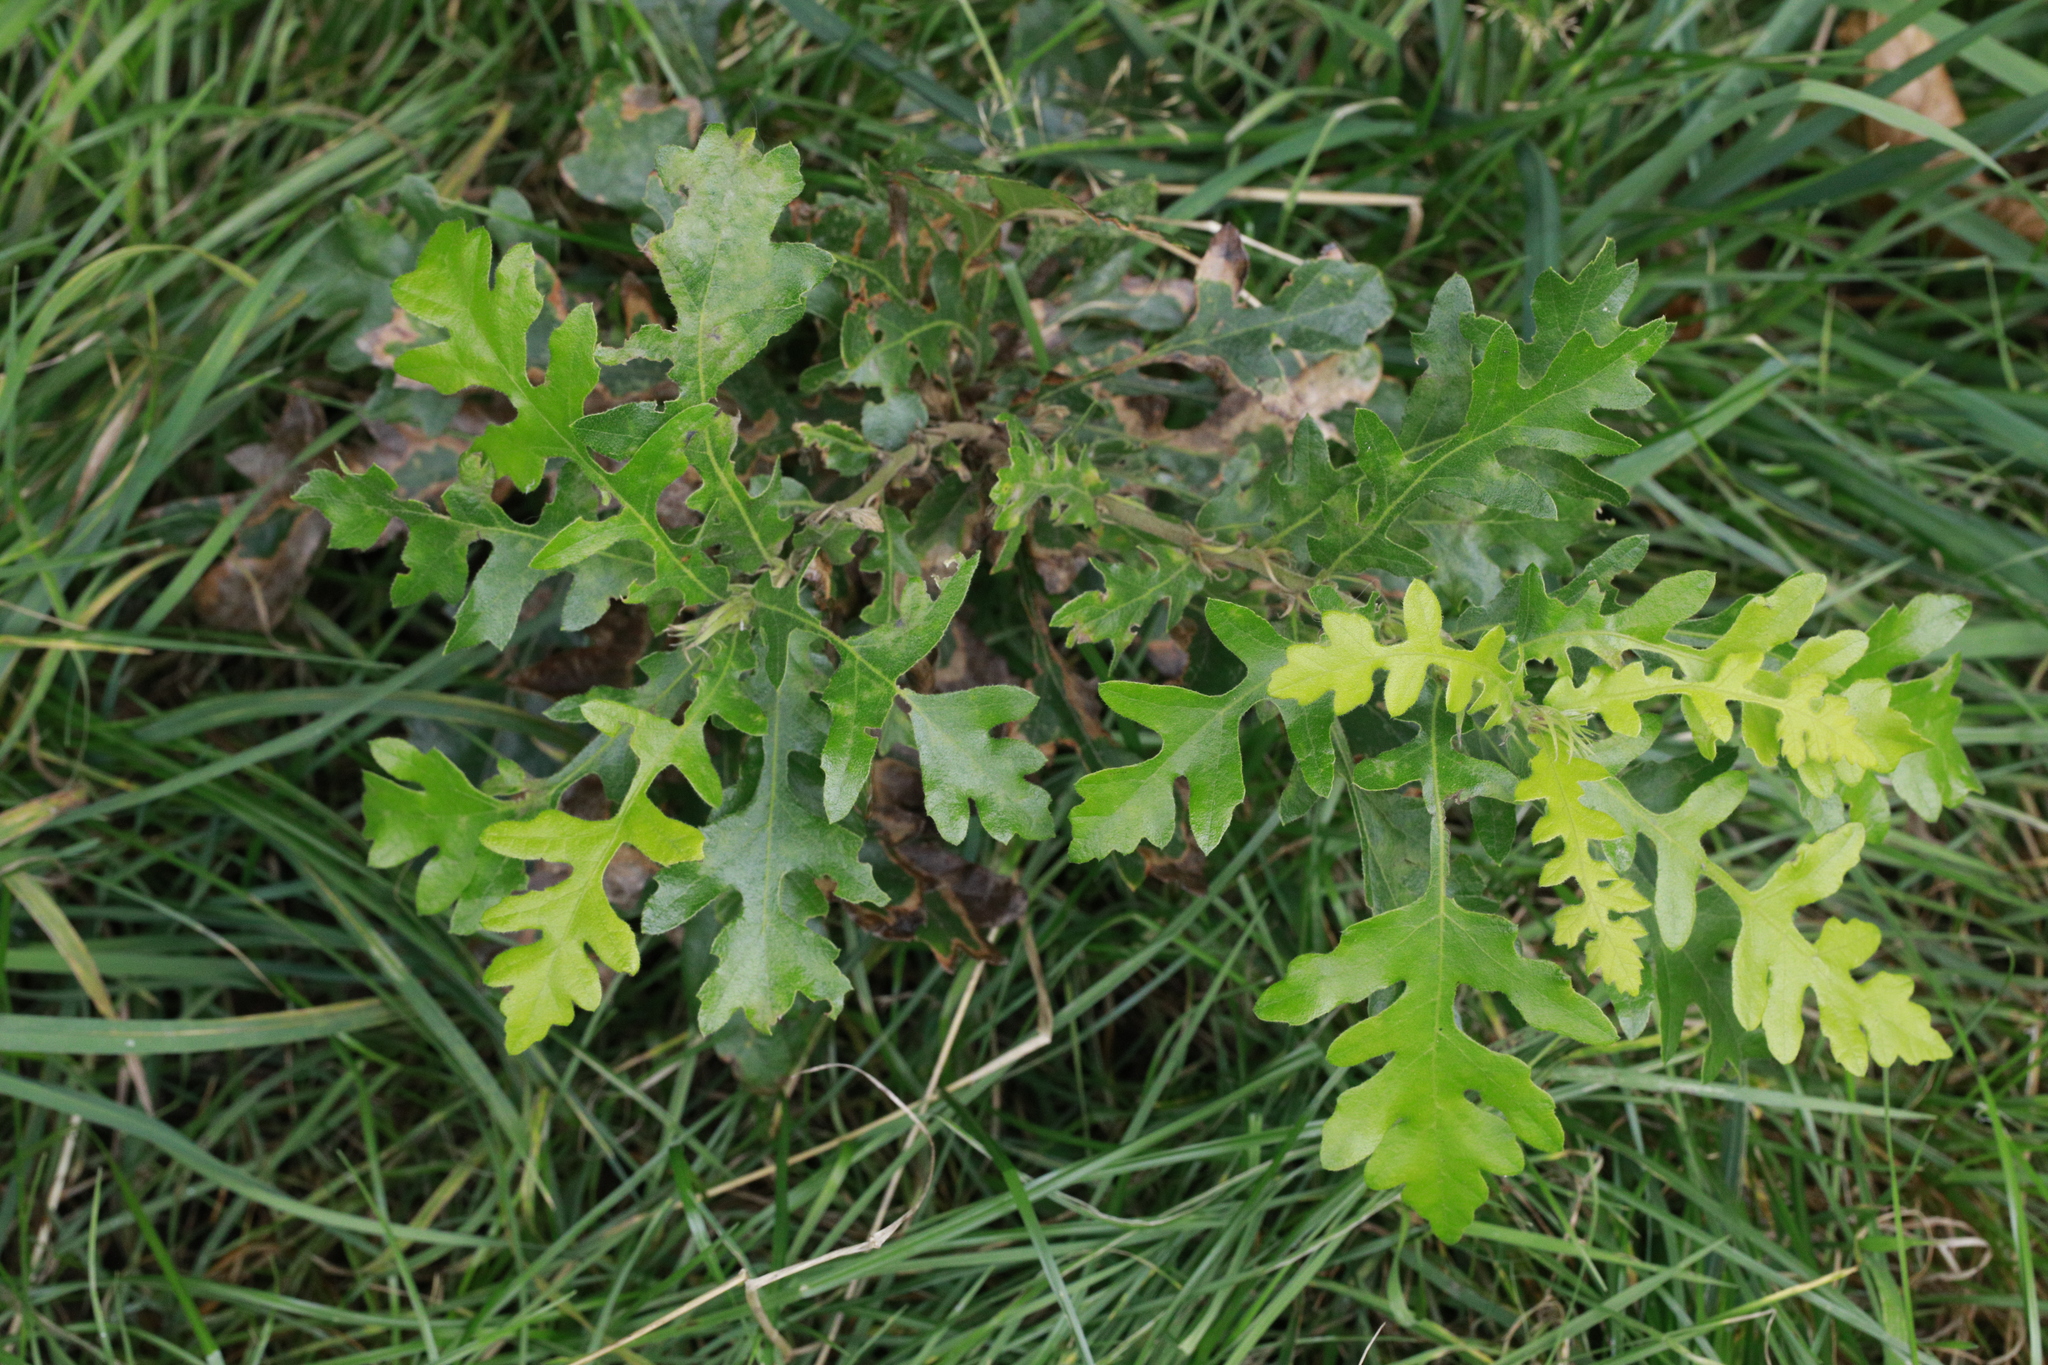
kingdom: Plantae
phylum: Tracheophyta
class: Magnoliopsida
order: Fagales
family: Fagaceae
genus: Quercus
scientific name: Quercus cerris
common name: Turkey oak
